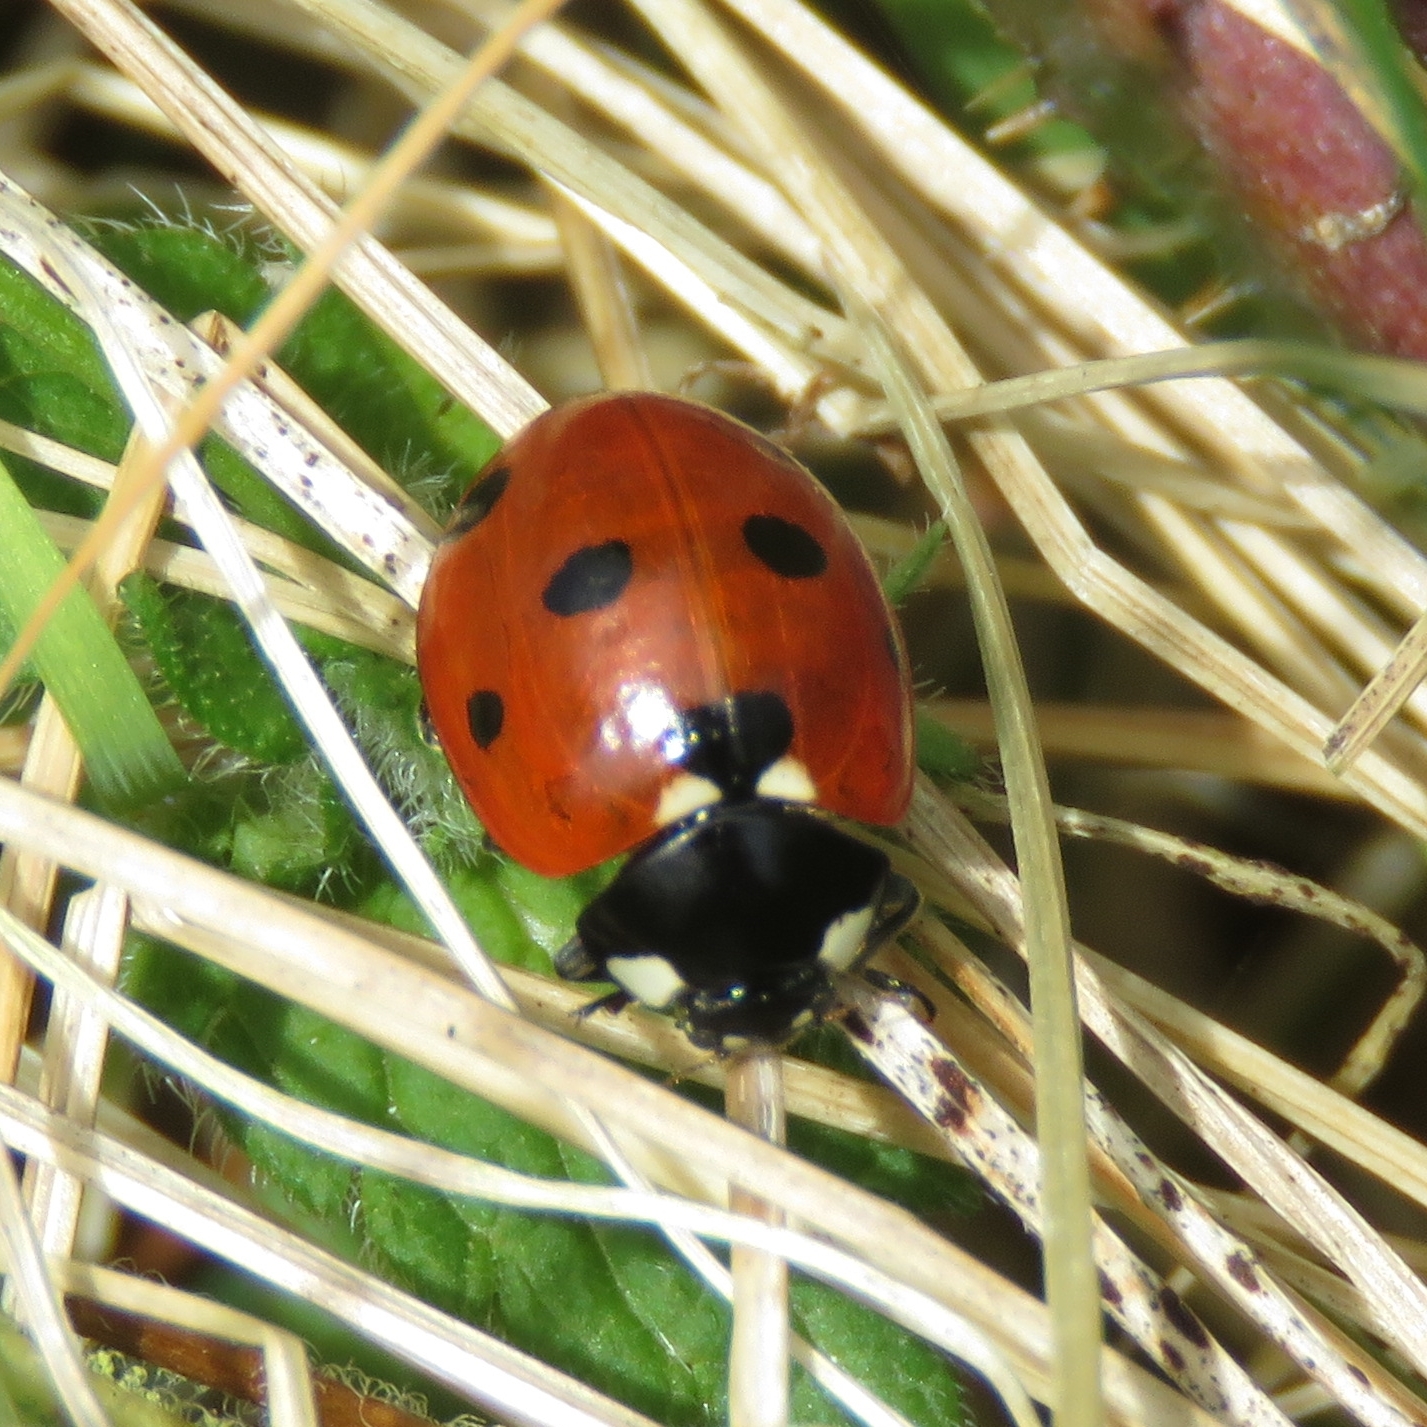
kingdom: Animalia
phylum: Arthropoda
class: Insecta
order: Coleoptera
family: Coccinellidae
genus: Coccinella
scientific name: Coccinella septempunctata
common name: Sevenspotted lady beetle
